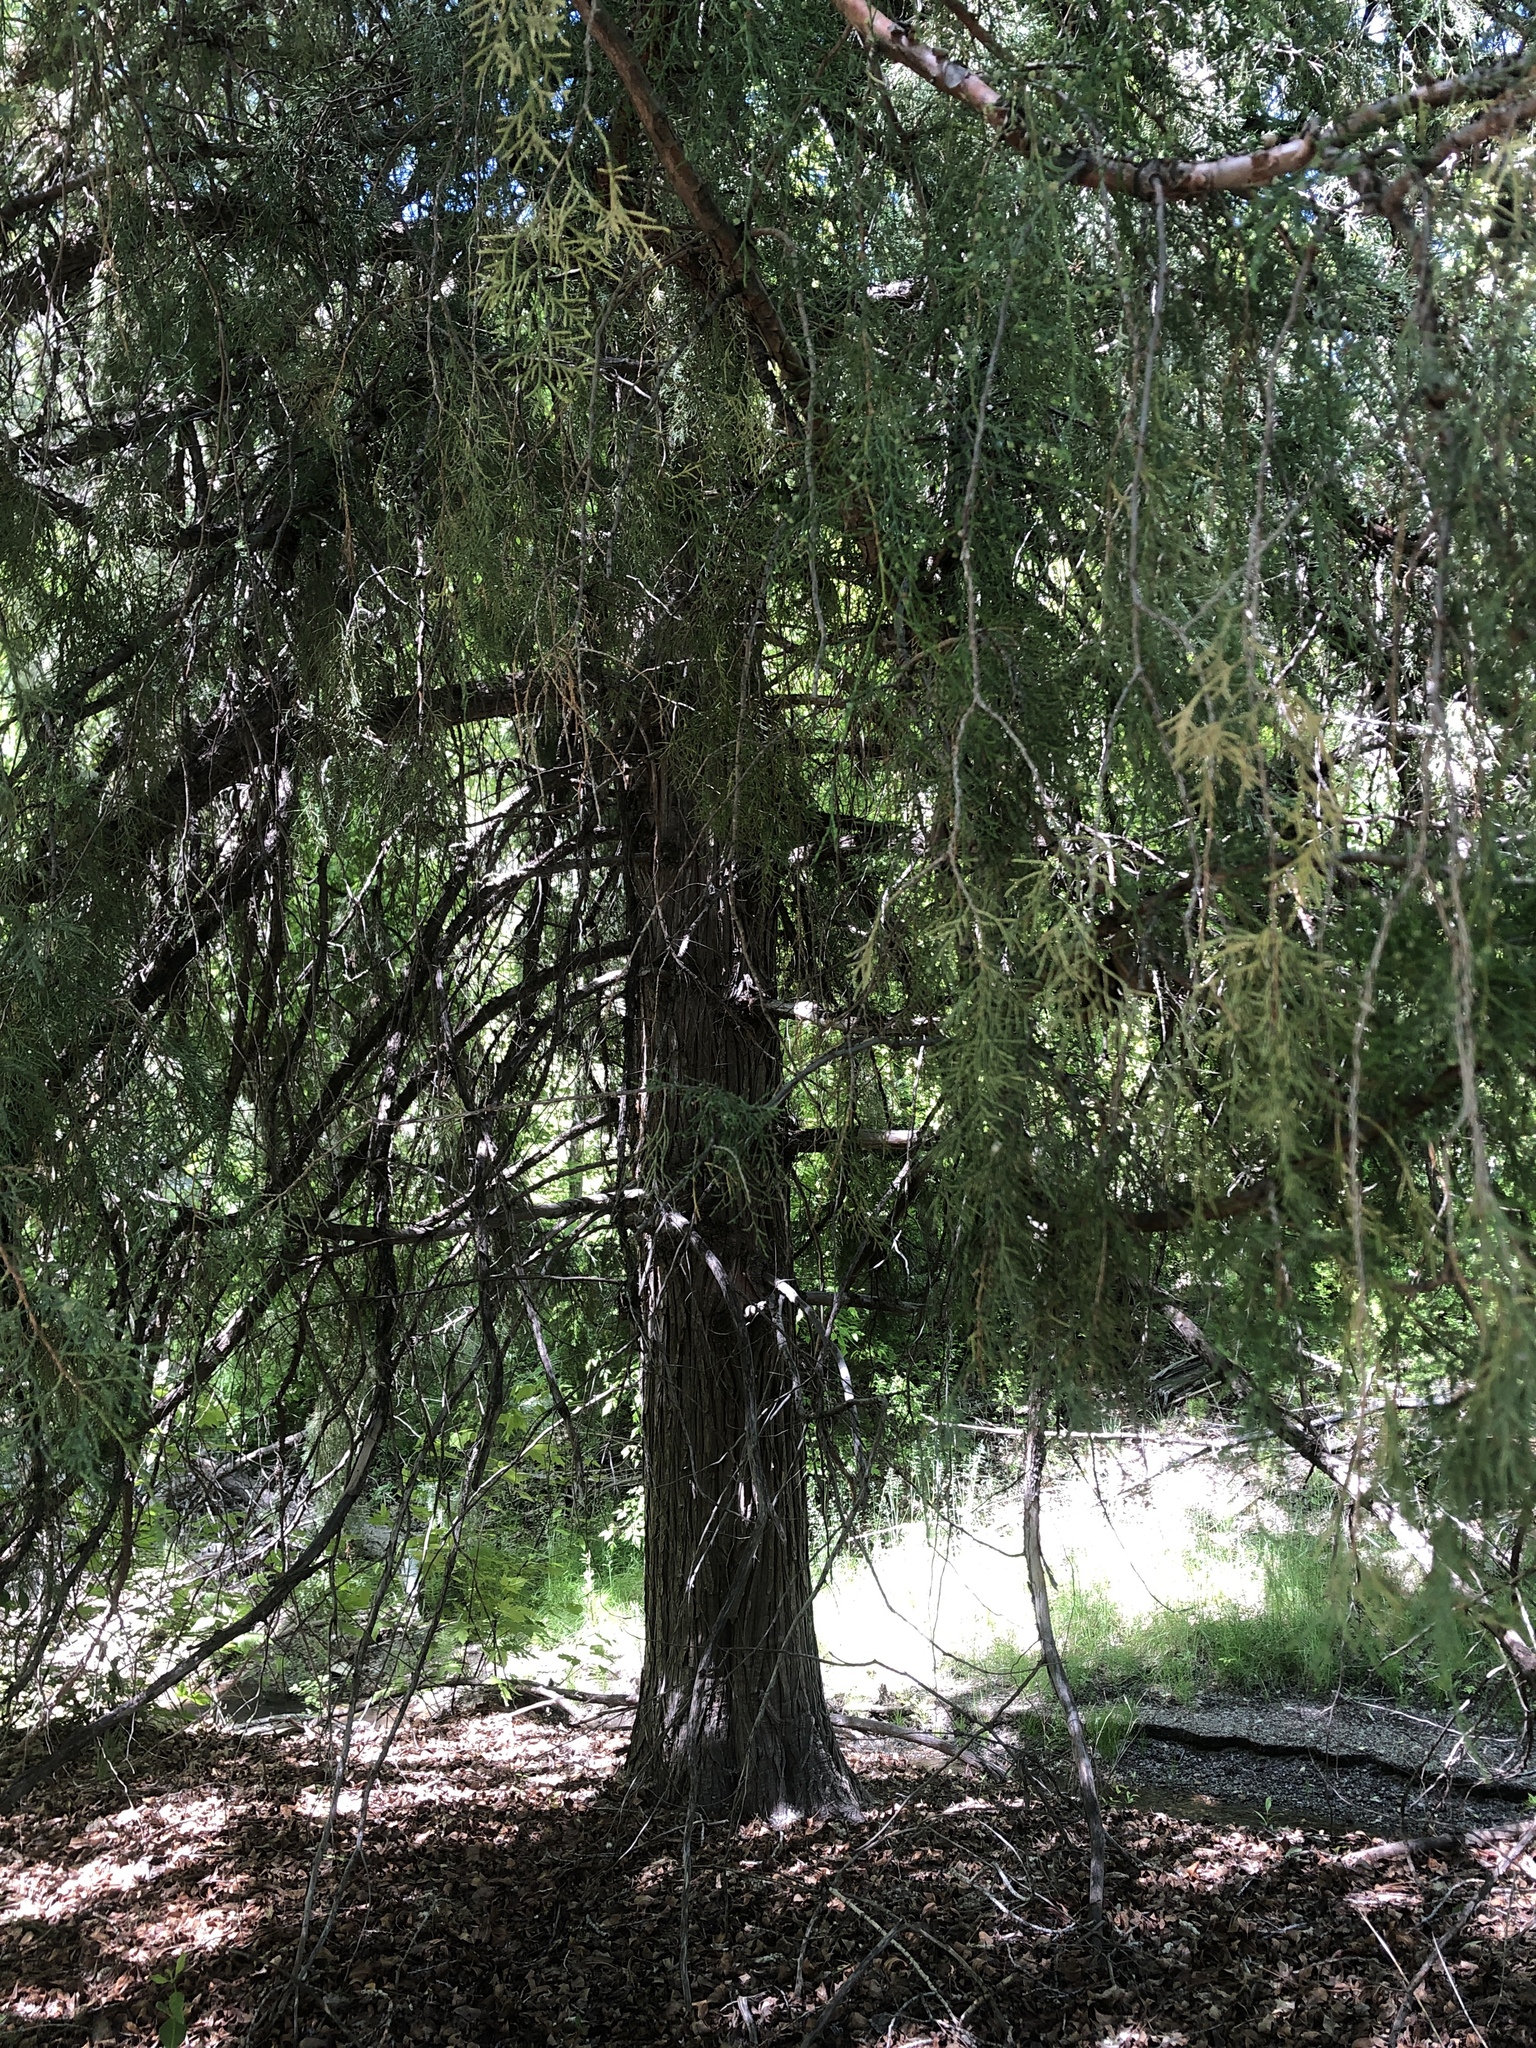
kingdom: Plantae
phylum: Tracheophyta
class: Pinopsida
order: Pinales
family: Cupressaceae
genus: Juniperus
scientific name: Juniperus scopulorum
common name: Rocky mountain juniper
